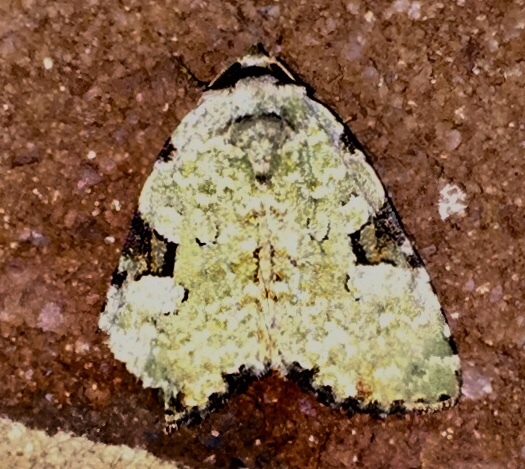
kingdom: Animalia
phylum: Arthropoda
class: Insecta
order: Lepidoptera
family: Noctuidae
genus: Leuconycta
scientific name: Leuconycta diphteroides
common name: Green leuconycta moth
